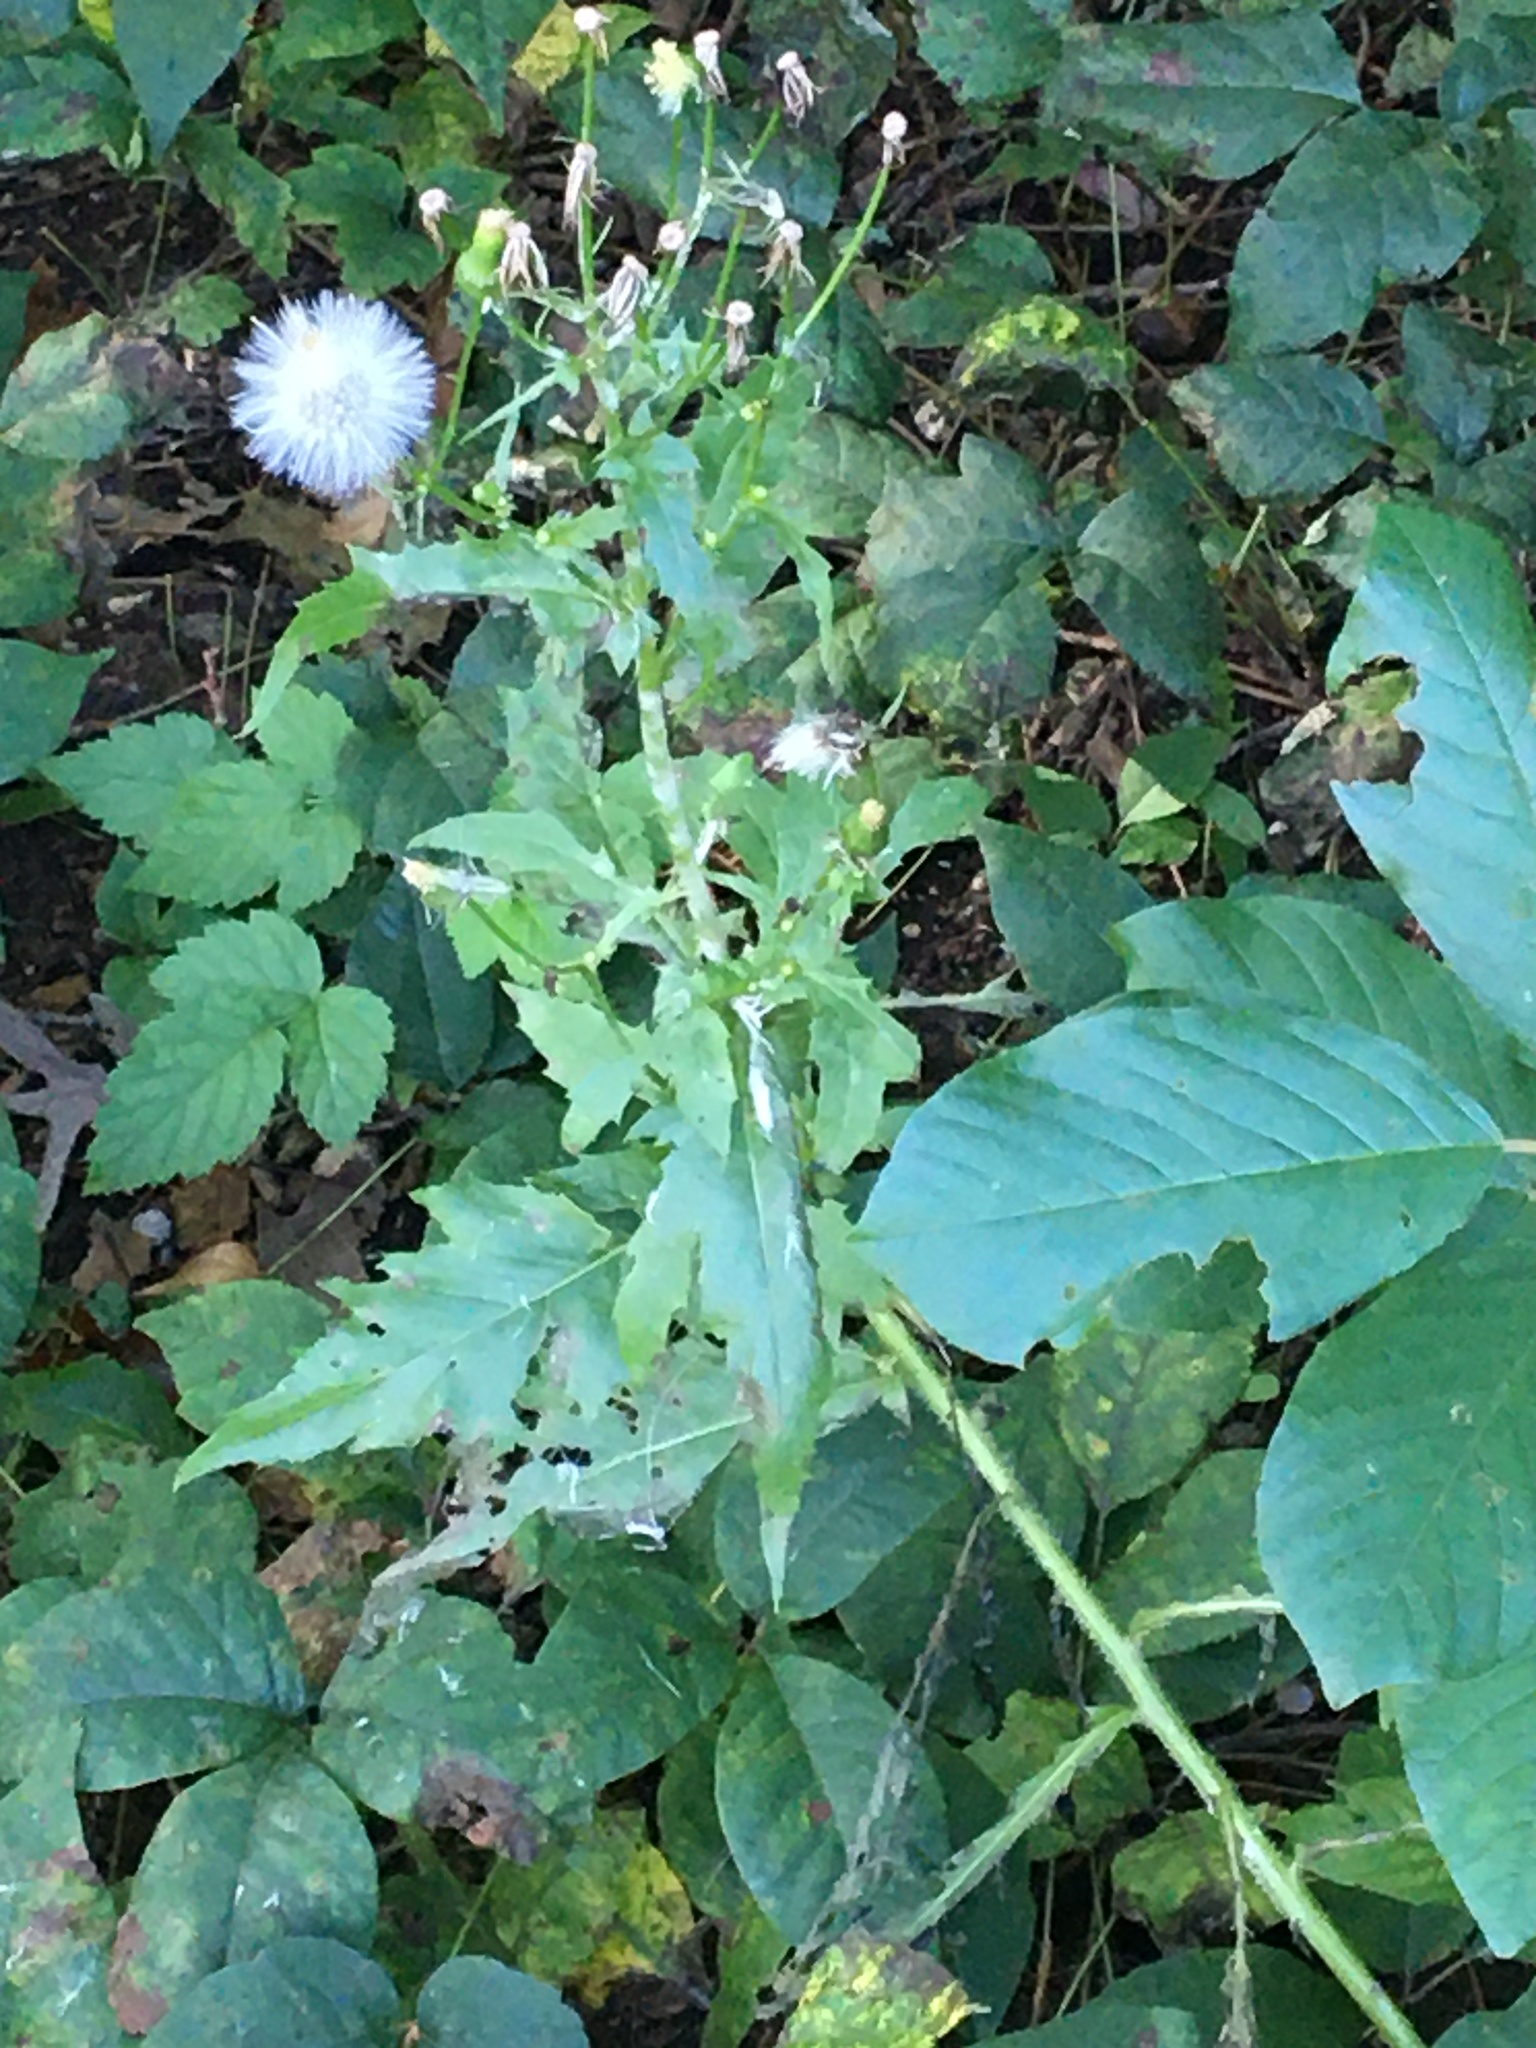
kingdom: Plantae
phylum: Tracheophyta
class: Magnoliopsida
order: Asterales
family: Asteraceae
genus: Erechtites
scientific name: Erechtites hieraciifolius
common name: American burnweed
